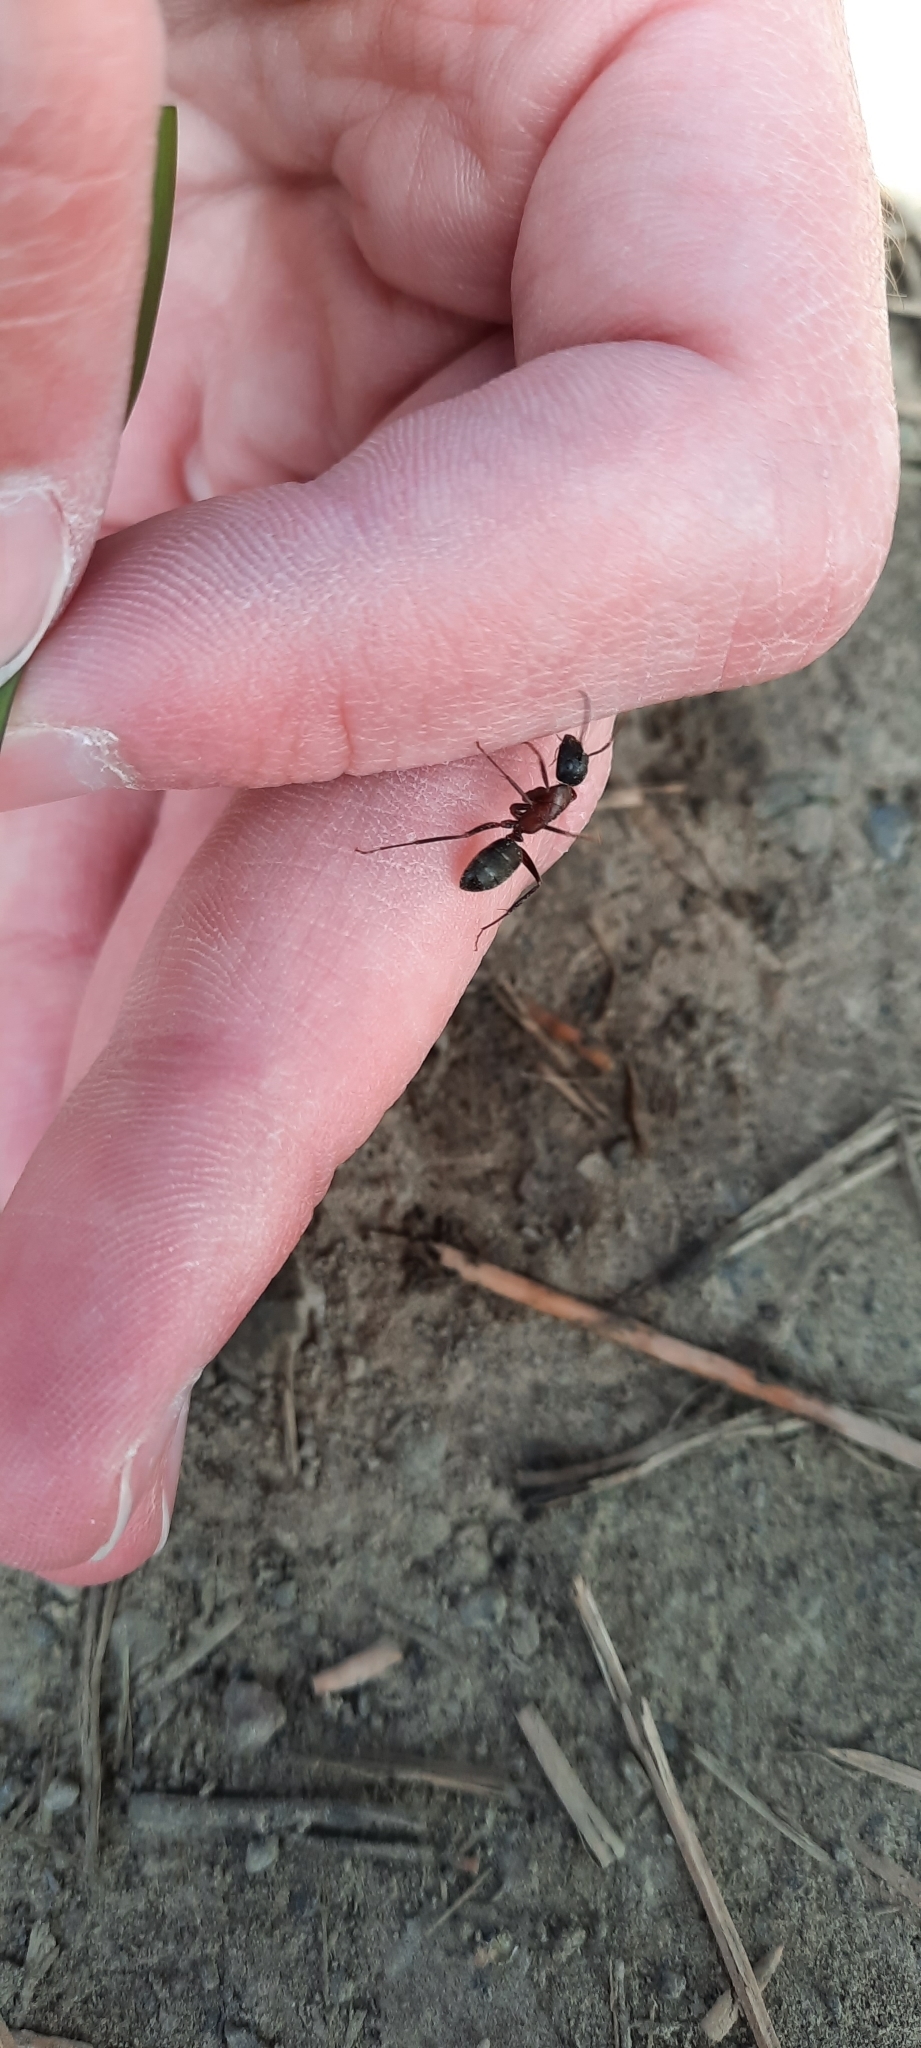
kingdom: Animalia
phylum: Arthropoda
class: Insecta
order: Hymenoptera
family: Formicidae
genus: Camponotus
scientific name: Camponotus vicinus
